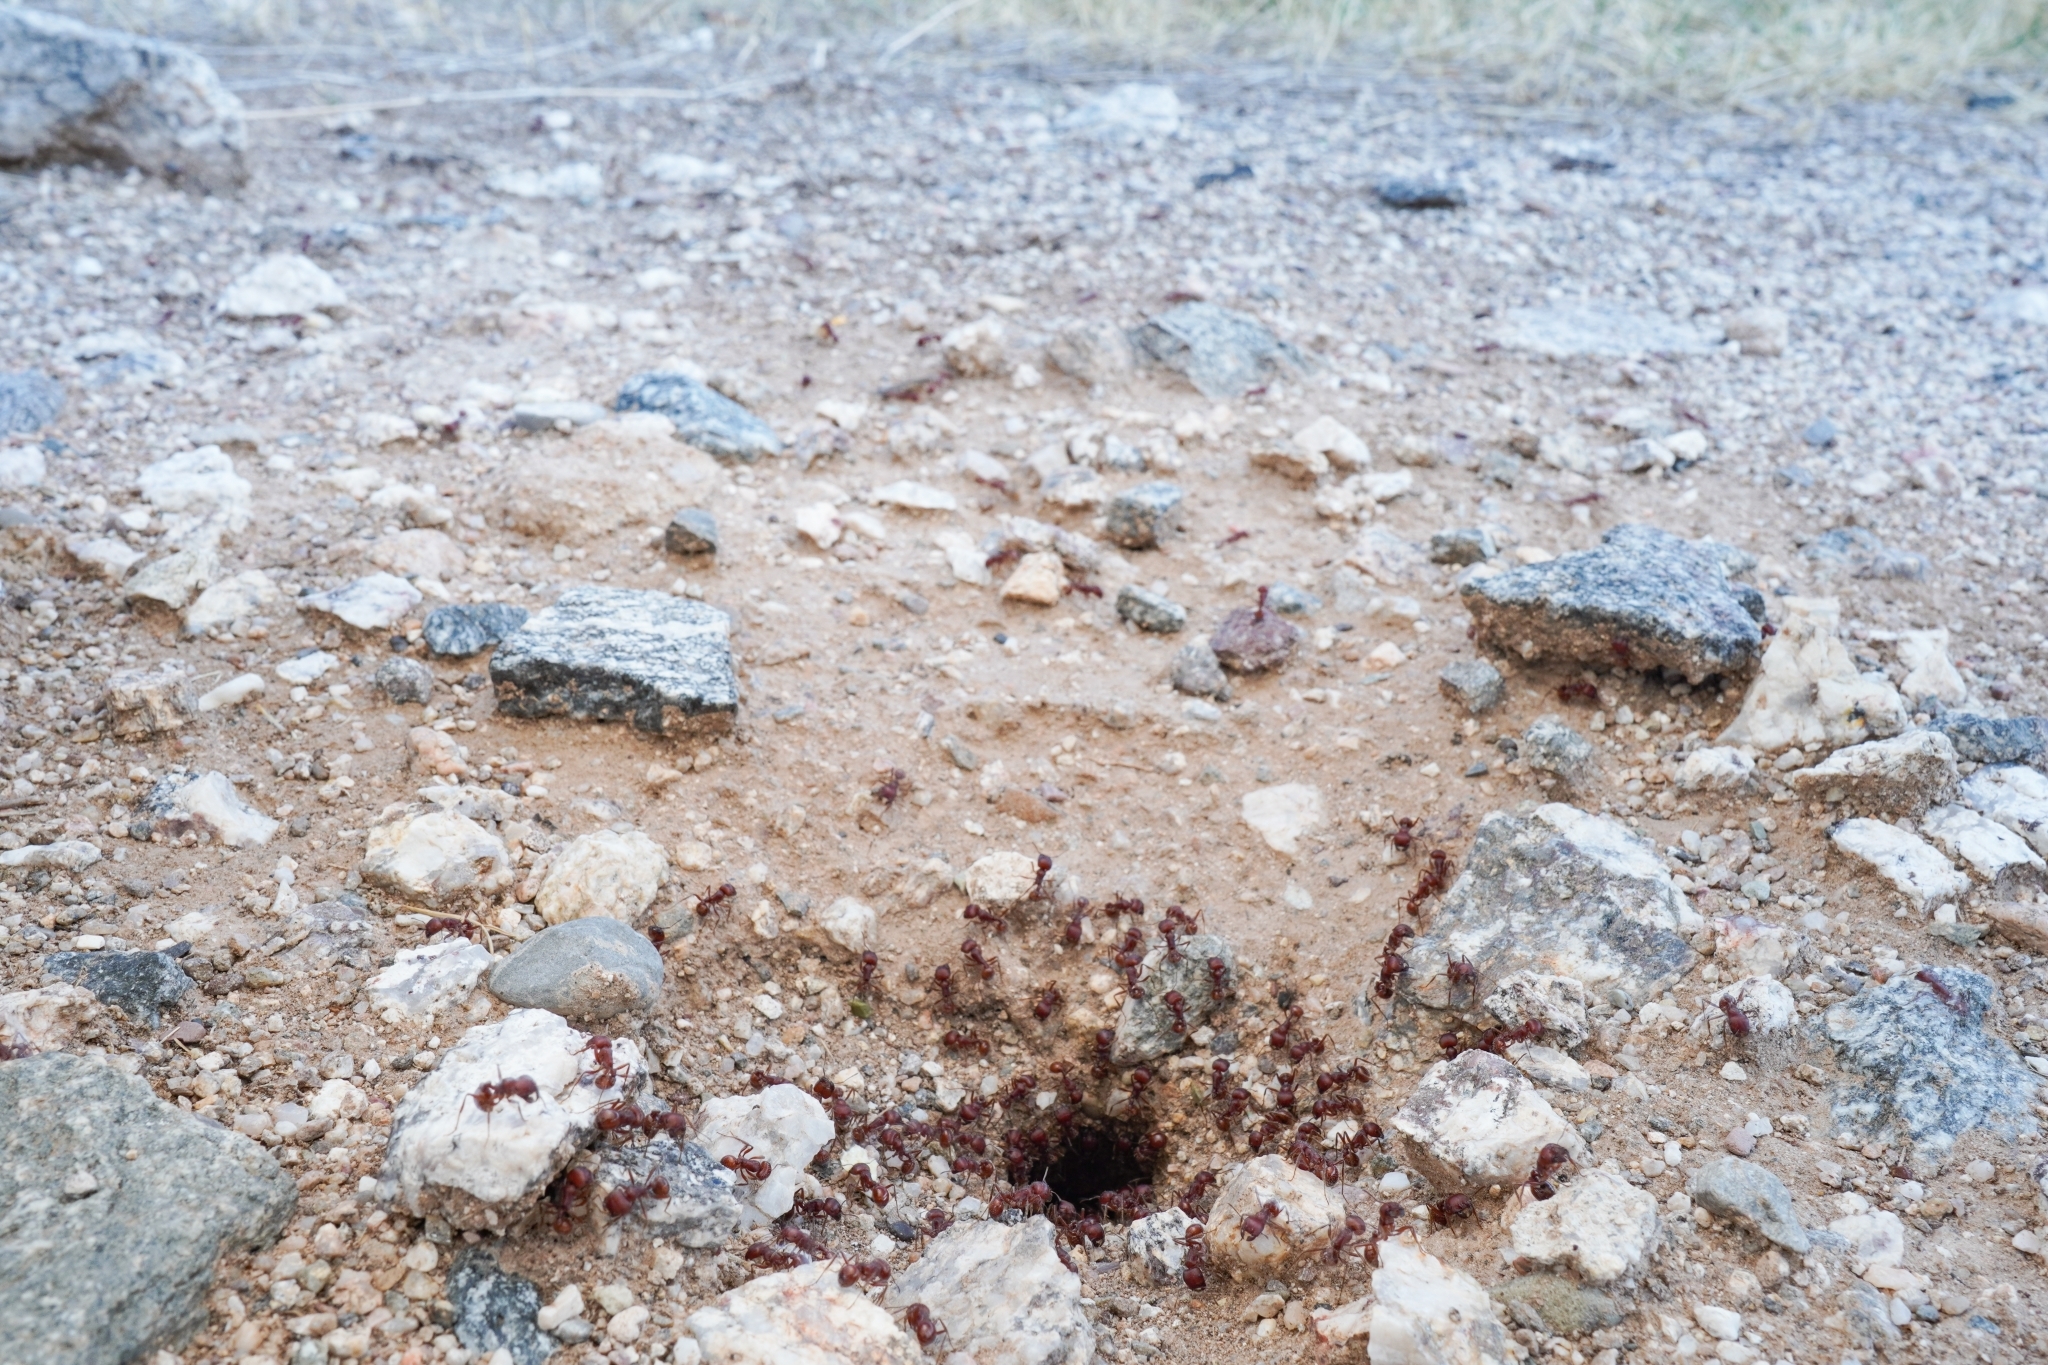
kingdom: Animalia
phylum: Arthropoda
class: Insecta
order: Hymenoptera
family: Formicidae
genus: Pogonomyrmex
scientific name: Pogonomyrmex barbatus
